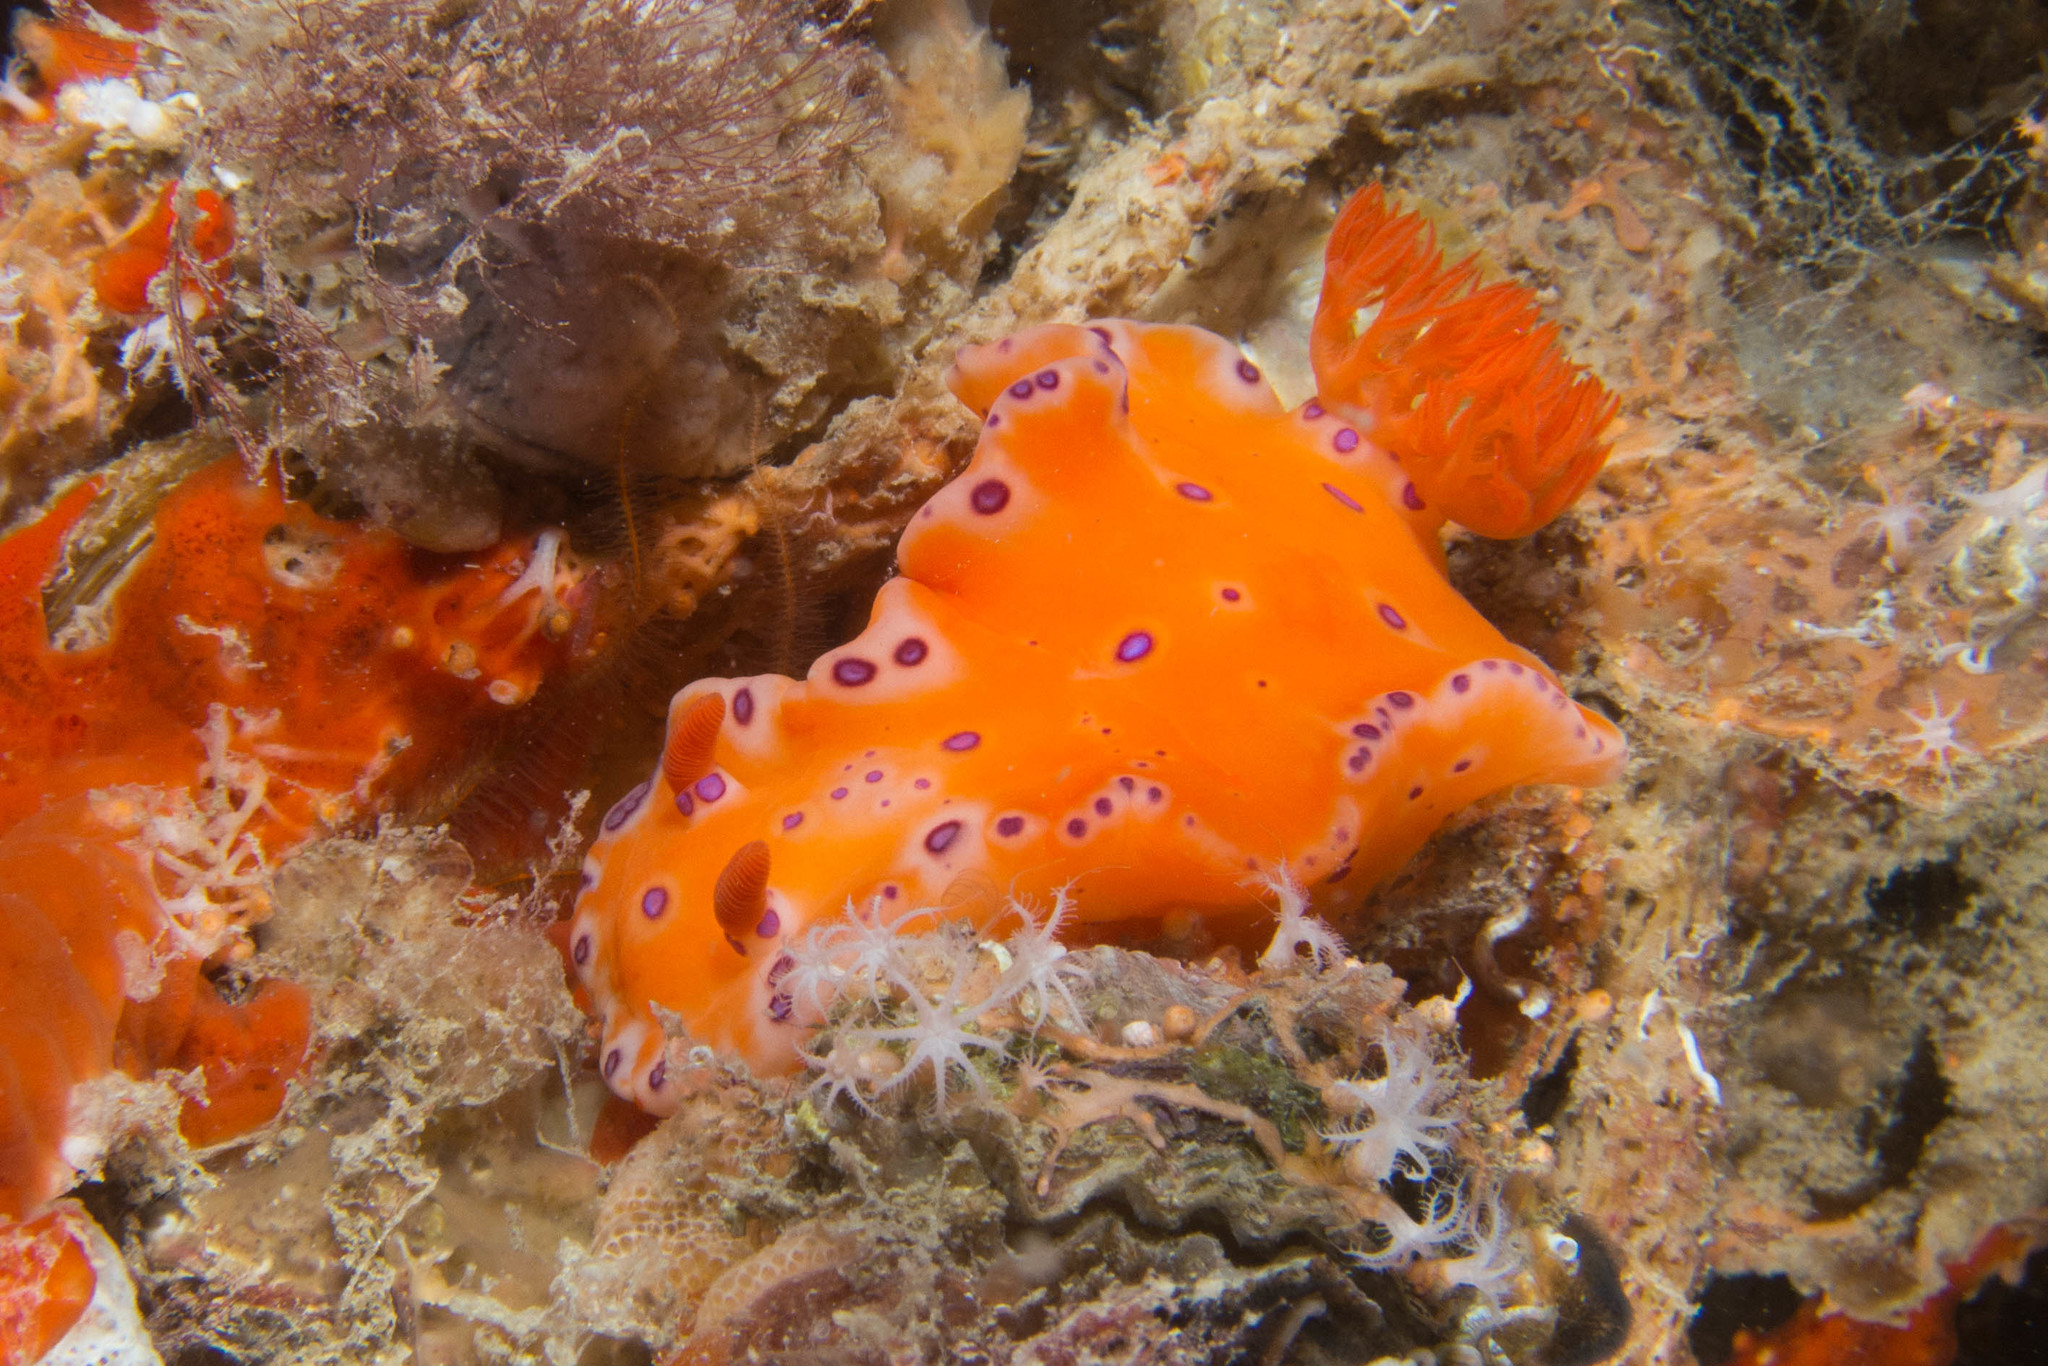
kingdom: Animalia
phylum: Mollusca
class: Gastropoda
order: Nudibranchia
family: Chromodorididae
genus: Ceratosoma
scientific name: Ceratosoma brevicaudatum
